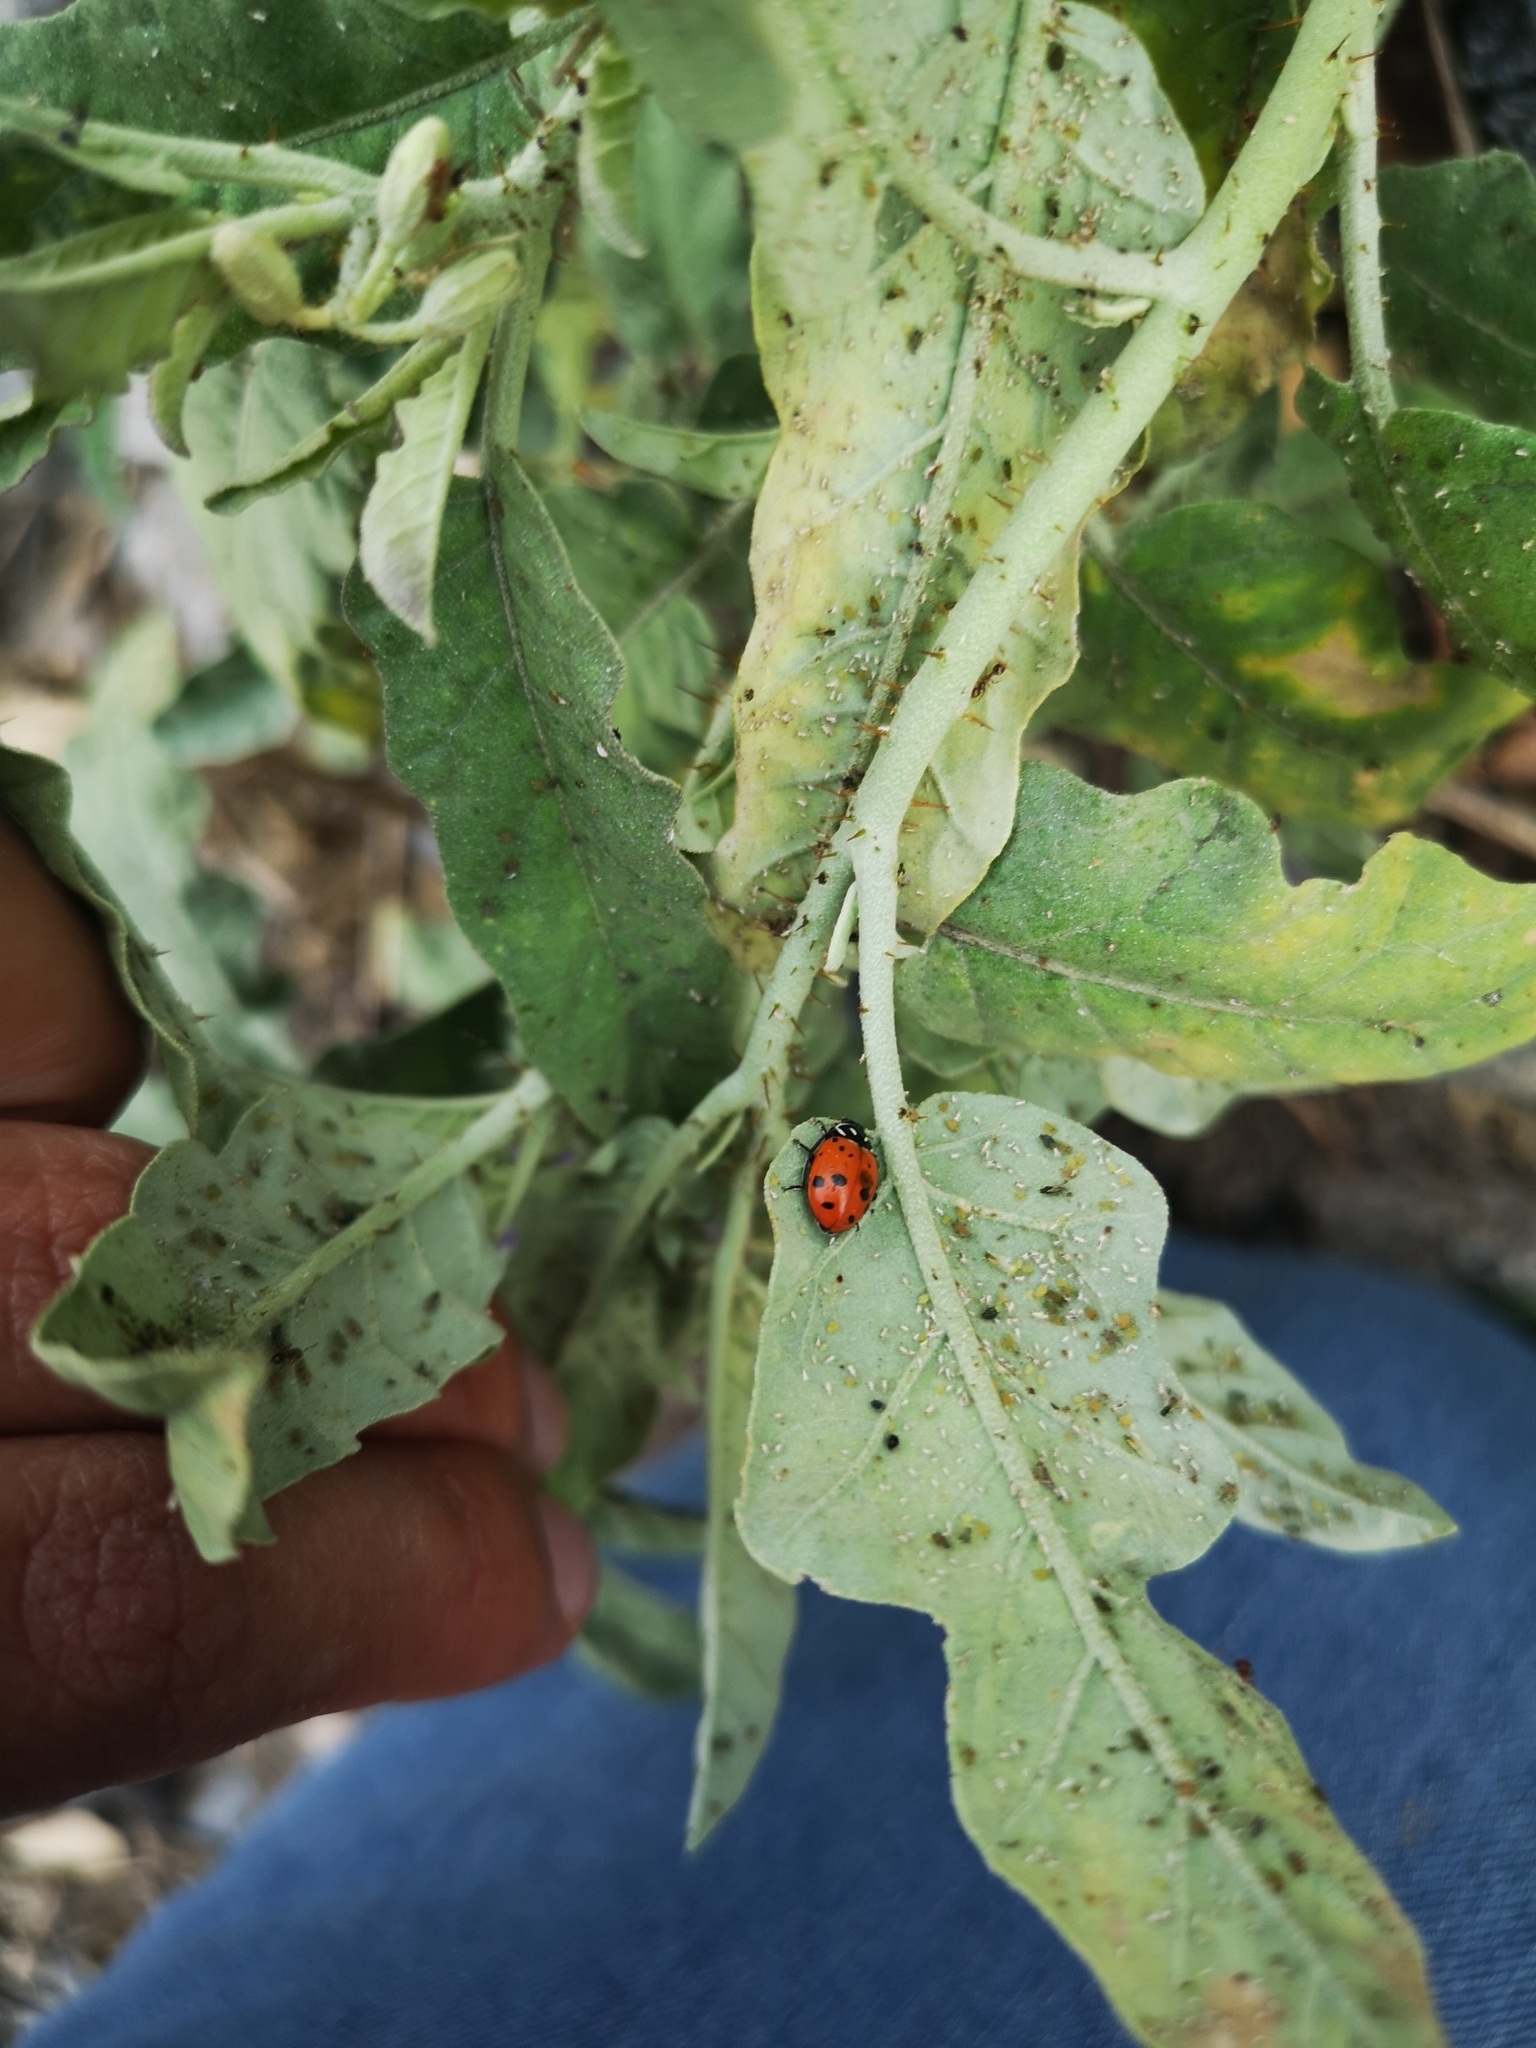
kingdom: Animalia
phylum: Arthropoda
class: Insecta
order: Coleoptera
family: Coccinellidae
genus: Hippodamia
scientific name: Hippodamia convergens
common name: Convergent lady beetle
